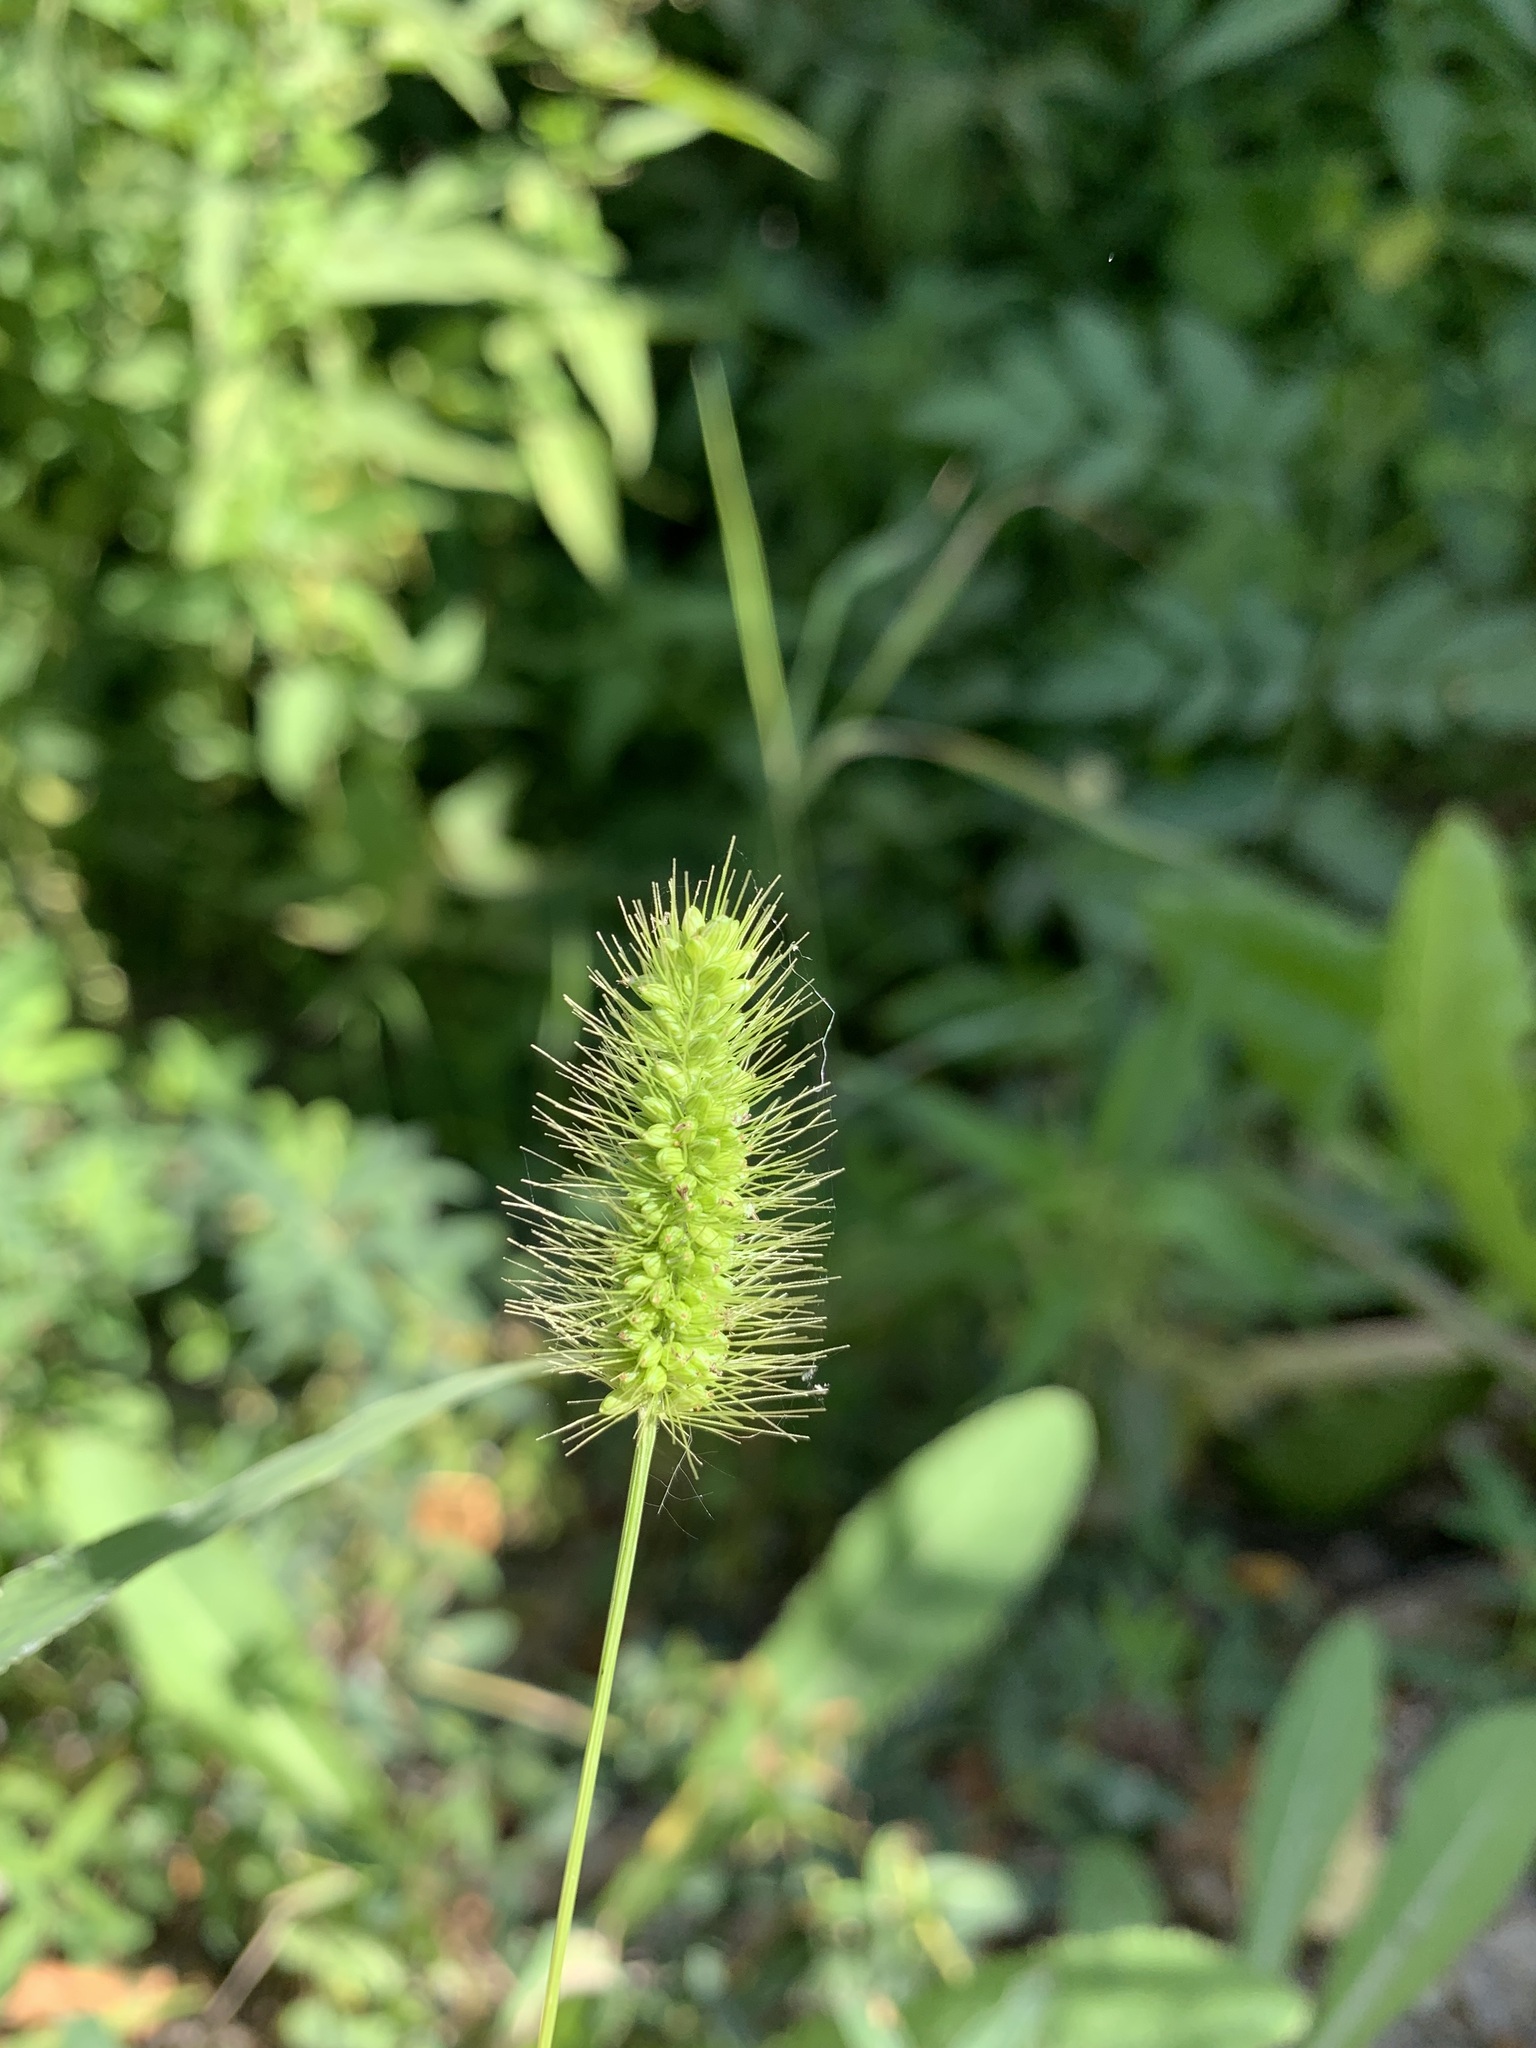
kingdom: Plantae
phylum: Tracheophyta
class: Liliopsida
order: Poales
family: Poaceae
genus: Setaria
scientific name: Setaria viridis
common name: Green bristlegrass
